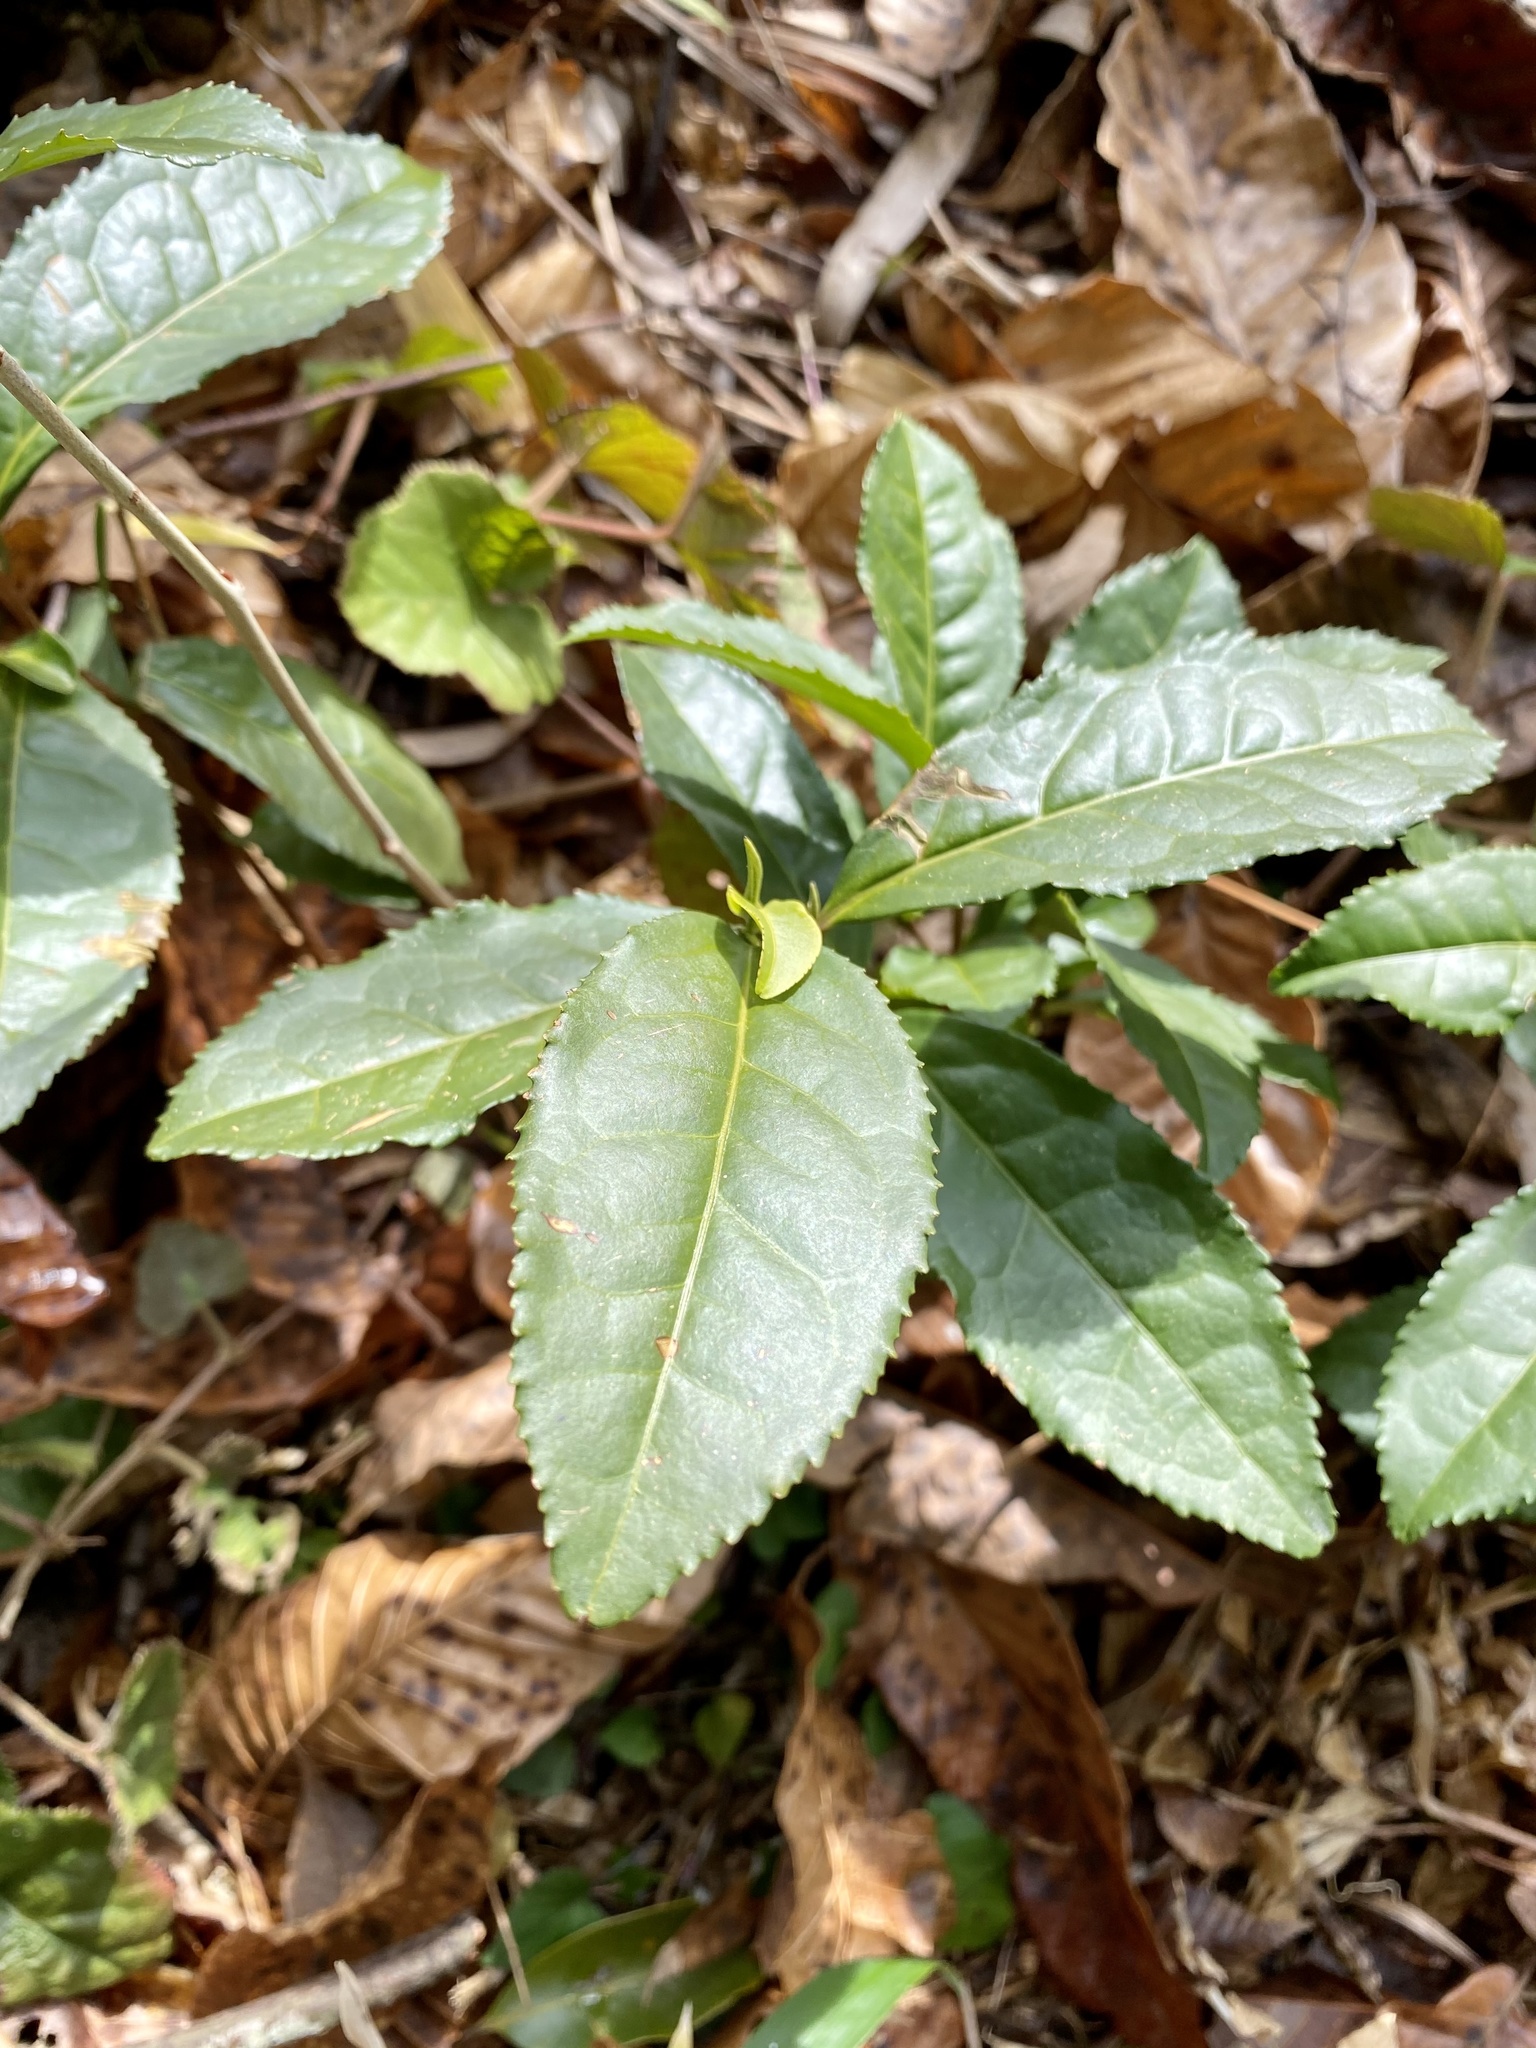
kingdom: Plantae
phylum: Tracheophyta
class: Magnoliopsida
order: Ericales
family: Theaceae
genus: Camellia
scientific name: Camellia sinensis
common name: Tea
